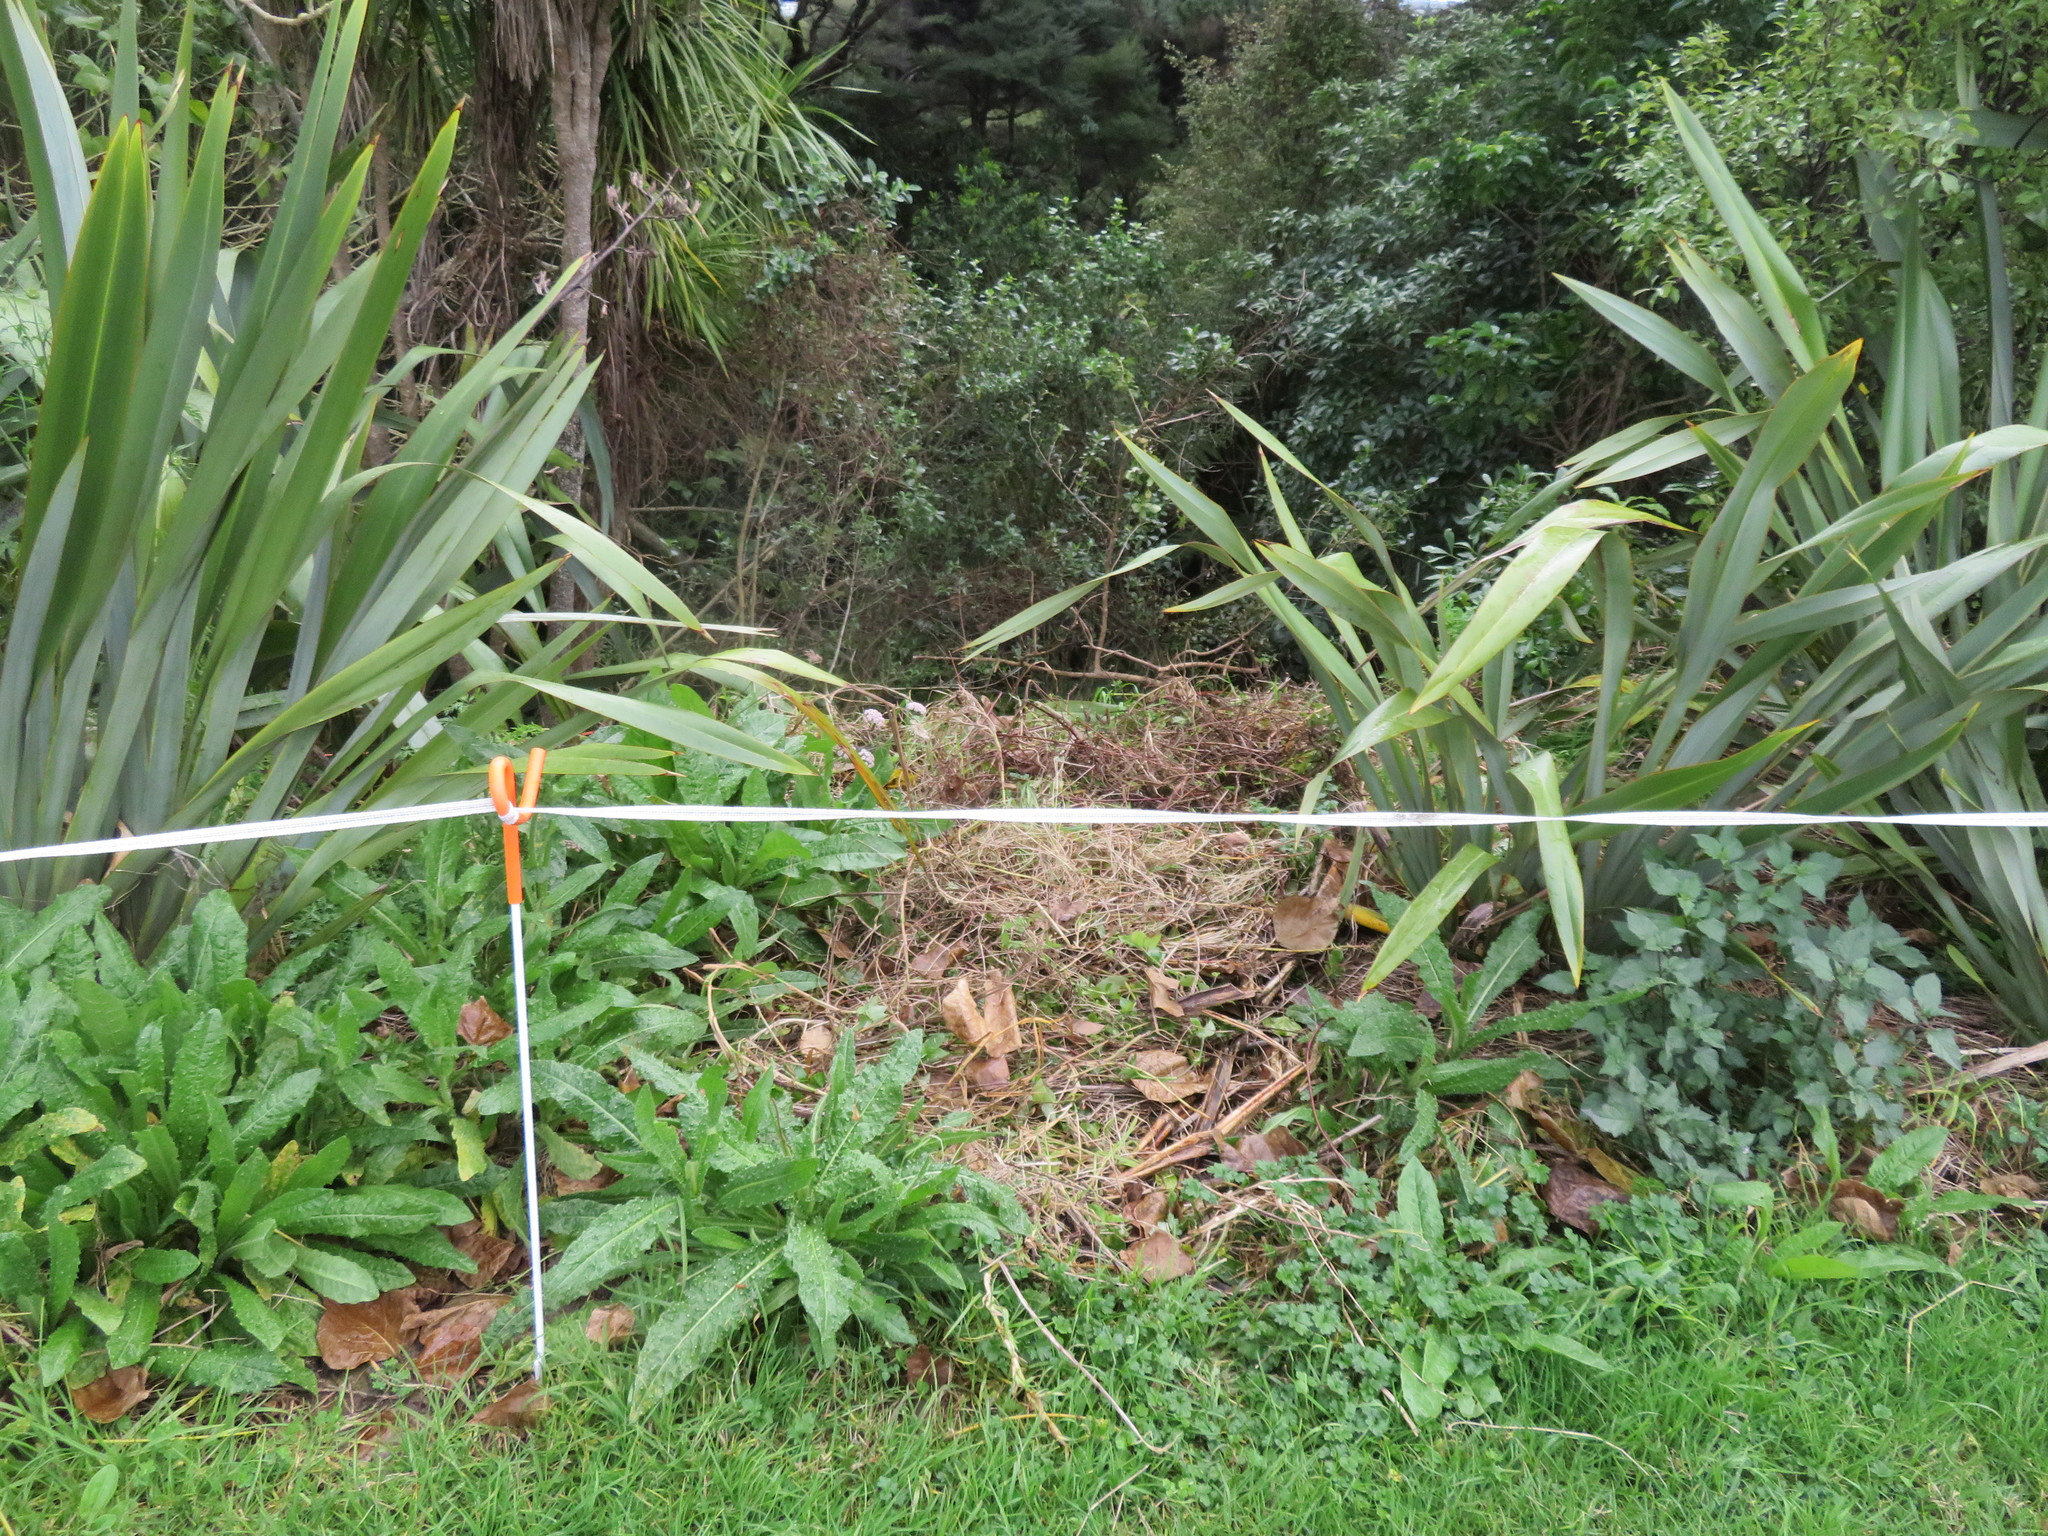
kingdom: Plantae
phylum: Tracheophyta
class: Liliopsida
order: Poales
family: Poaceae
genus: Cenchrus
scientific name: Cenchrus clandestinus
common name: Kikuyugrass
